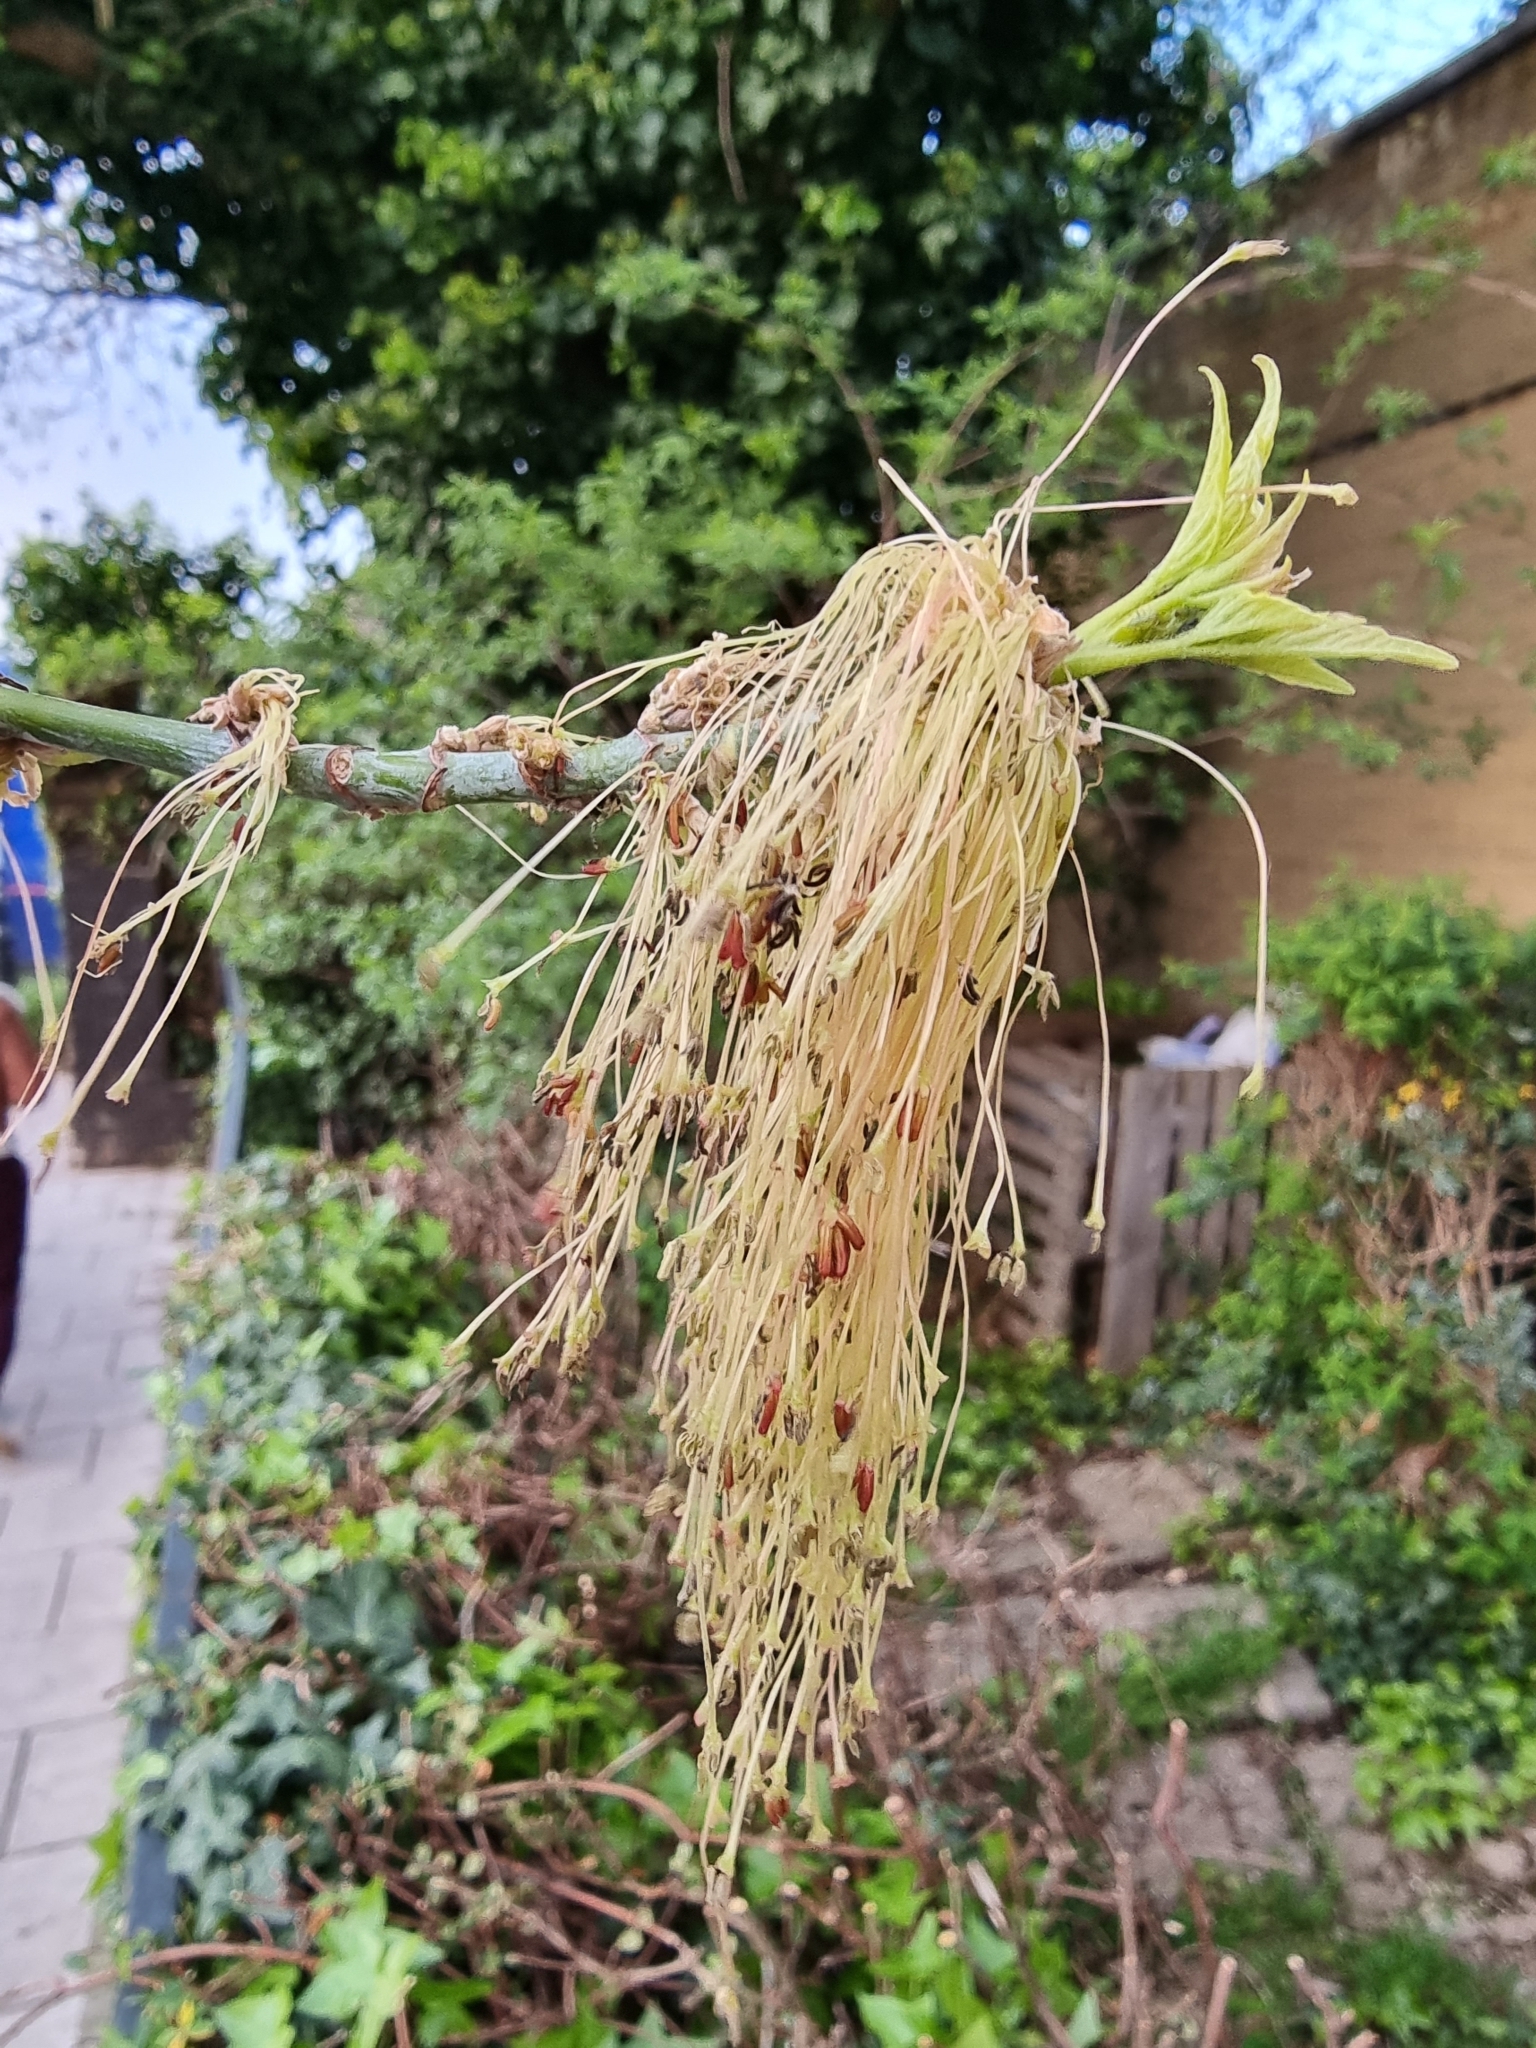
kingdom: Plantae
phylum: Tracheophyta
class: Magnoliopsida
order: Sapindales
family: Sapindaceae
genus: Acer
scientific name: Acer negundo
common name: Ashleaf maple
